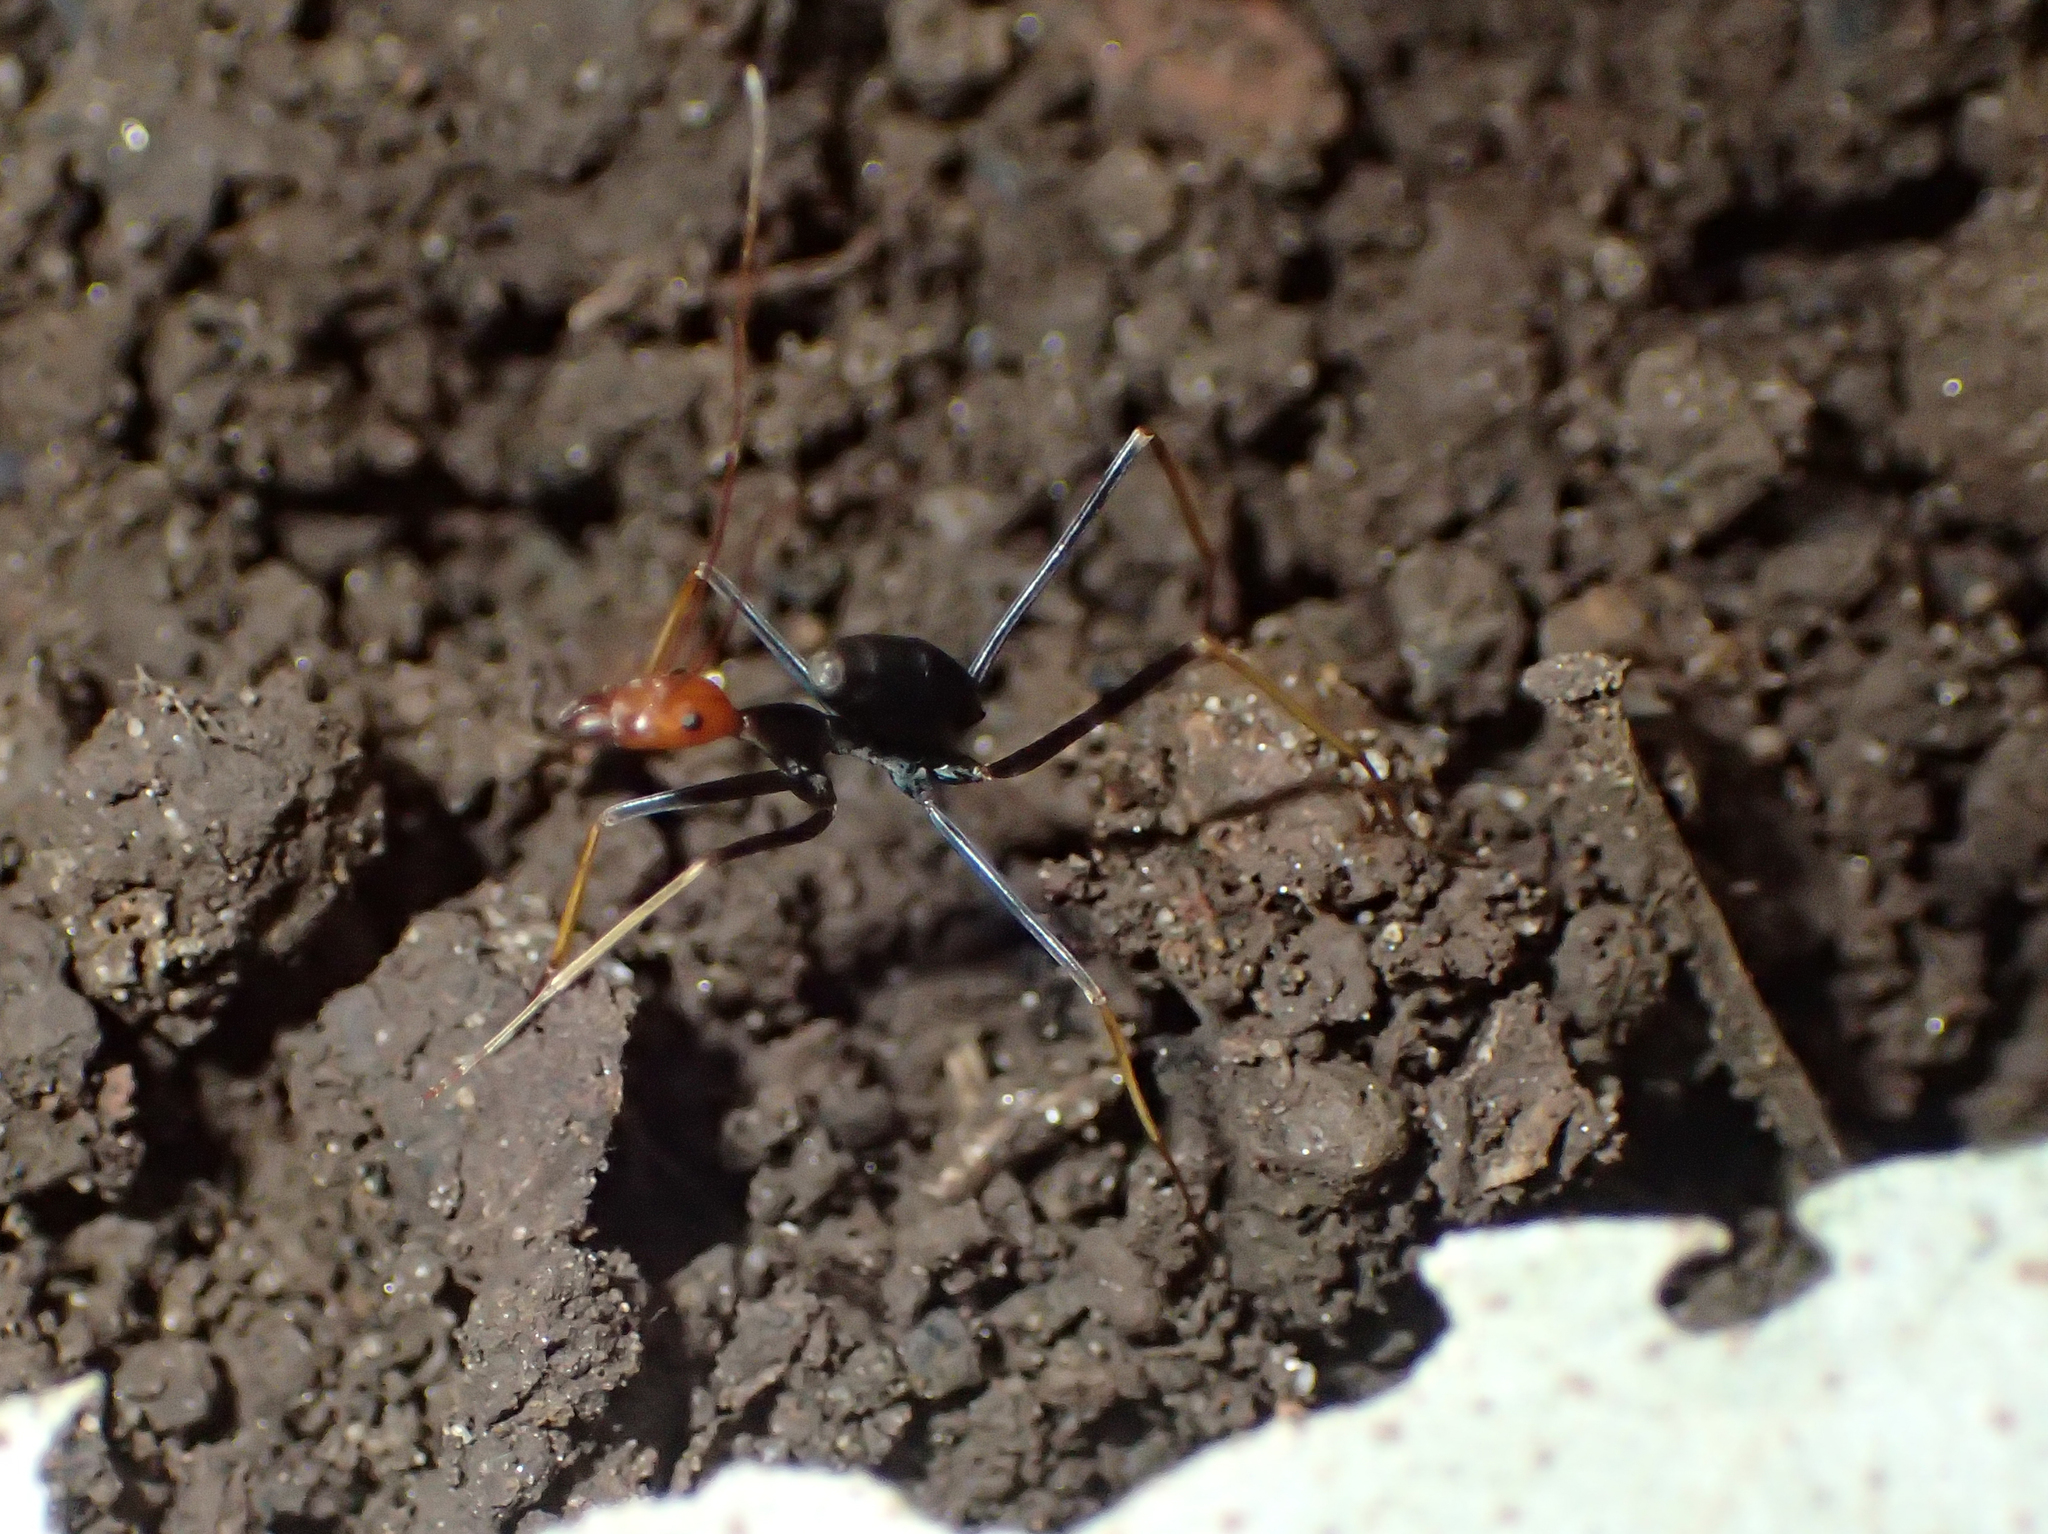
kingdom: Animalia
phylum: Arthropoda
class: Insecta
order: Hymenoptera
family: Formicidae
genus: Leptomyrmex
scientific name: Leptomyrmex ruficeps
